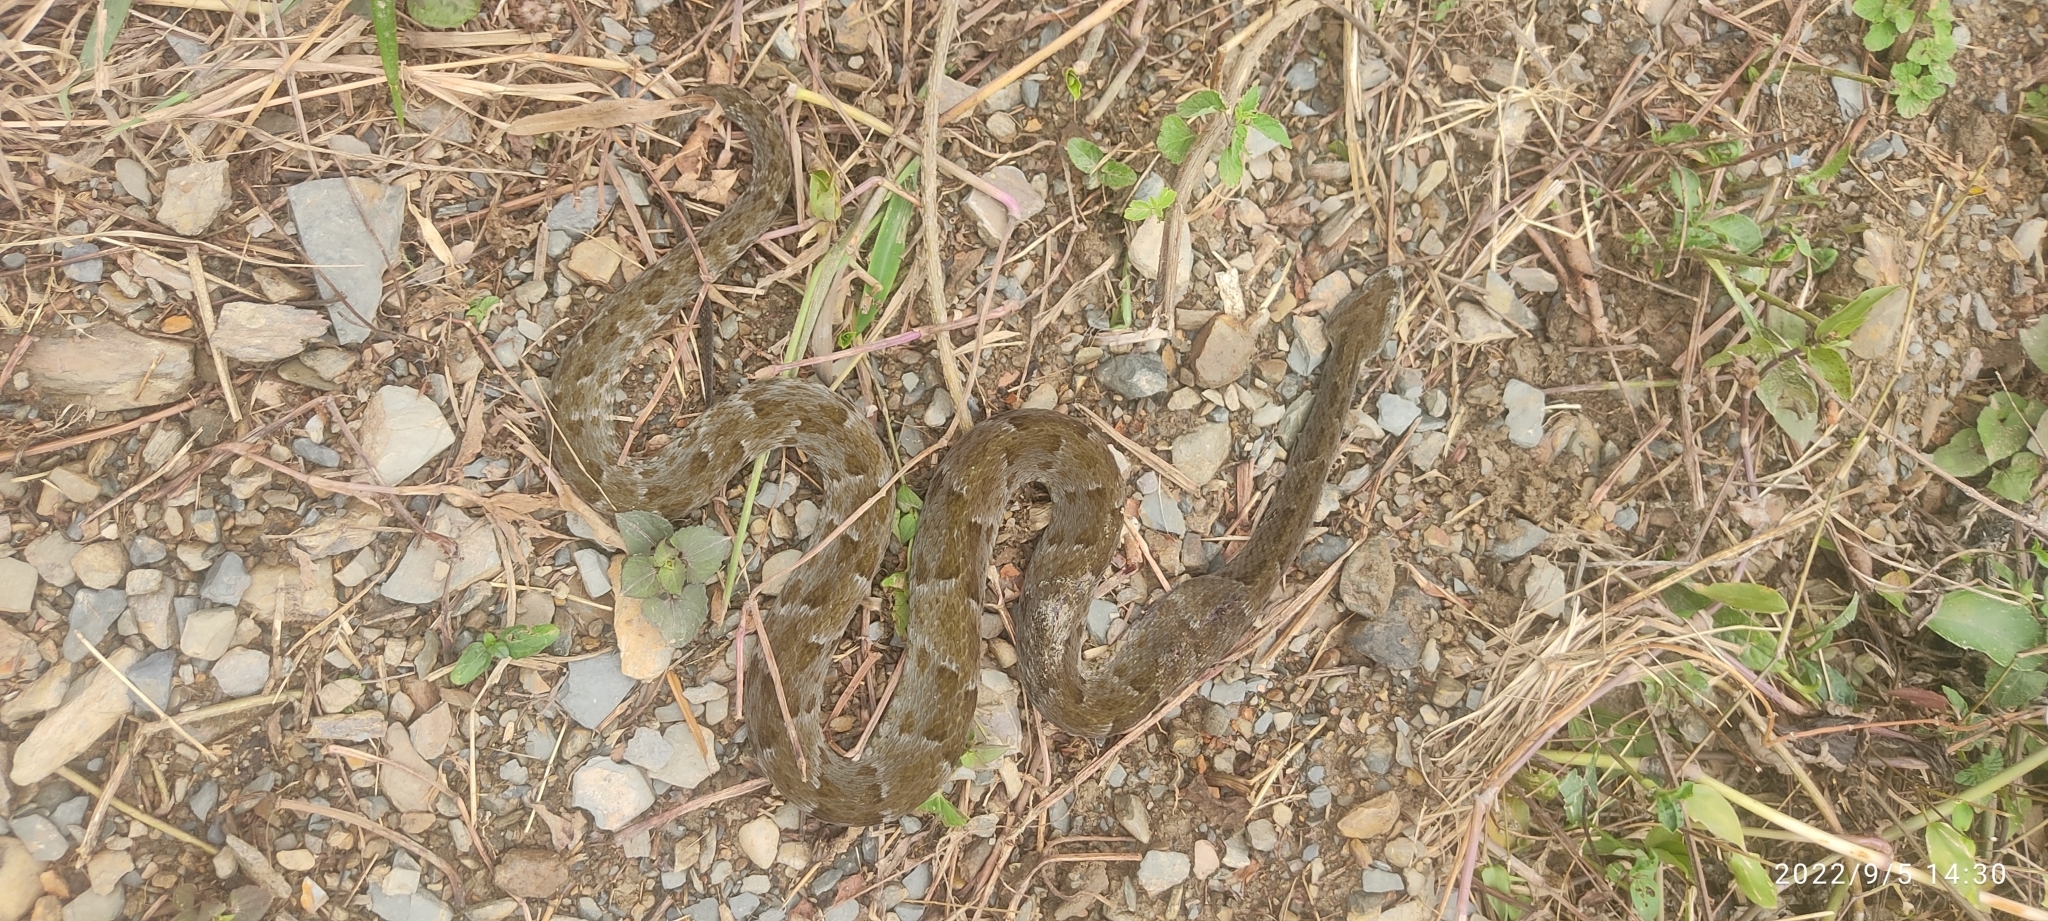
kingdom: Animalia
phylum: Chordata
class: Squamata
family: Viperidae
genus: Bothrops
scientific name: Bothrops atrox
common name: Common lancehead
